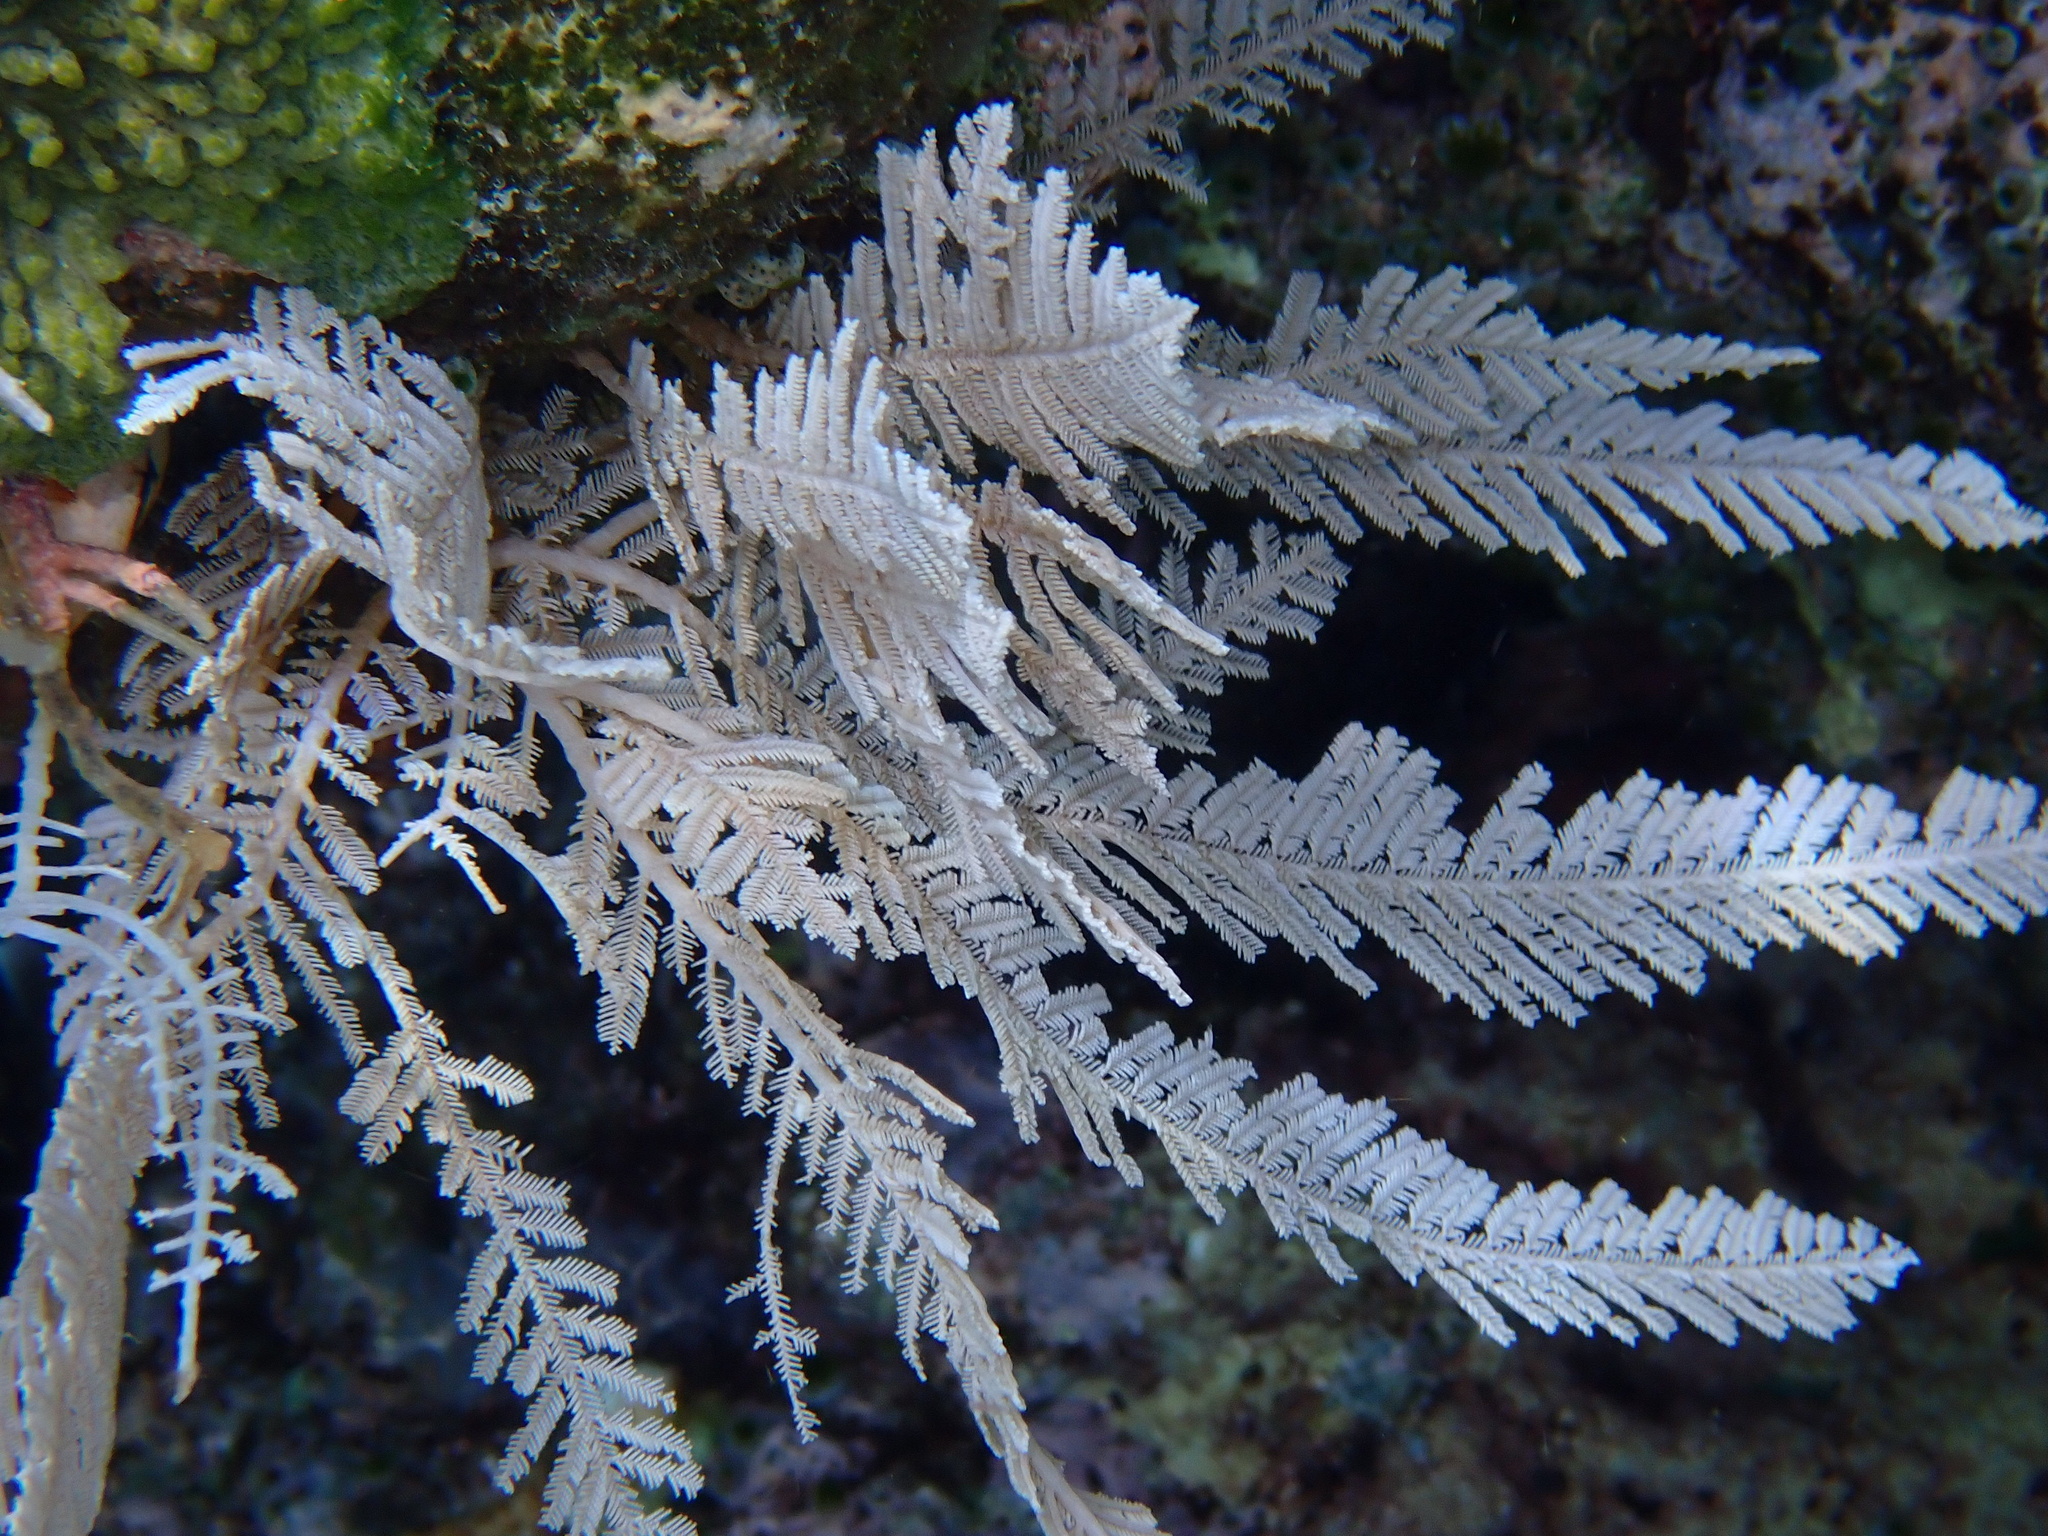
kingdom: Animalia
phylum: Cnidaria
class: Hydrozoa
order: Leptothecata
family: Aglaopheniidae
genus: Pachyrhynchia
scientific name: Pachyrhynchia cuppressina
